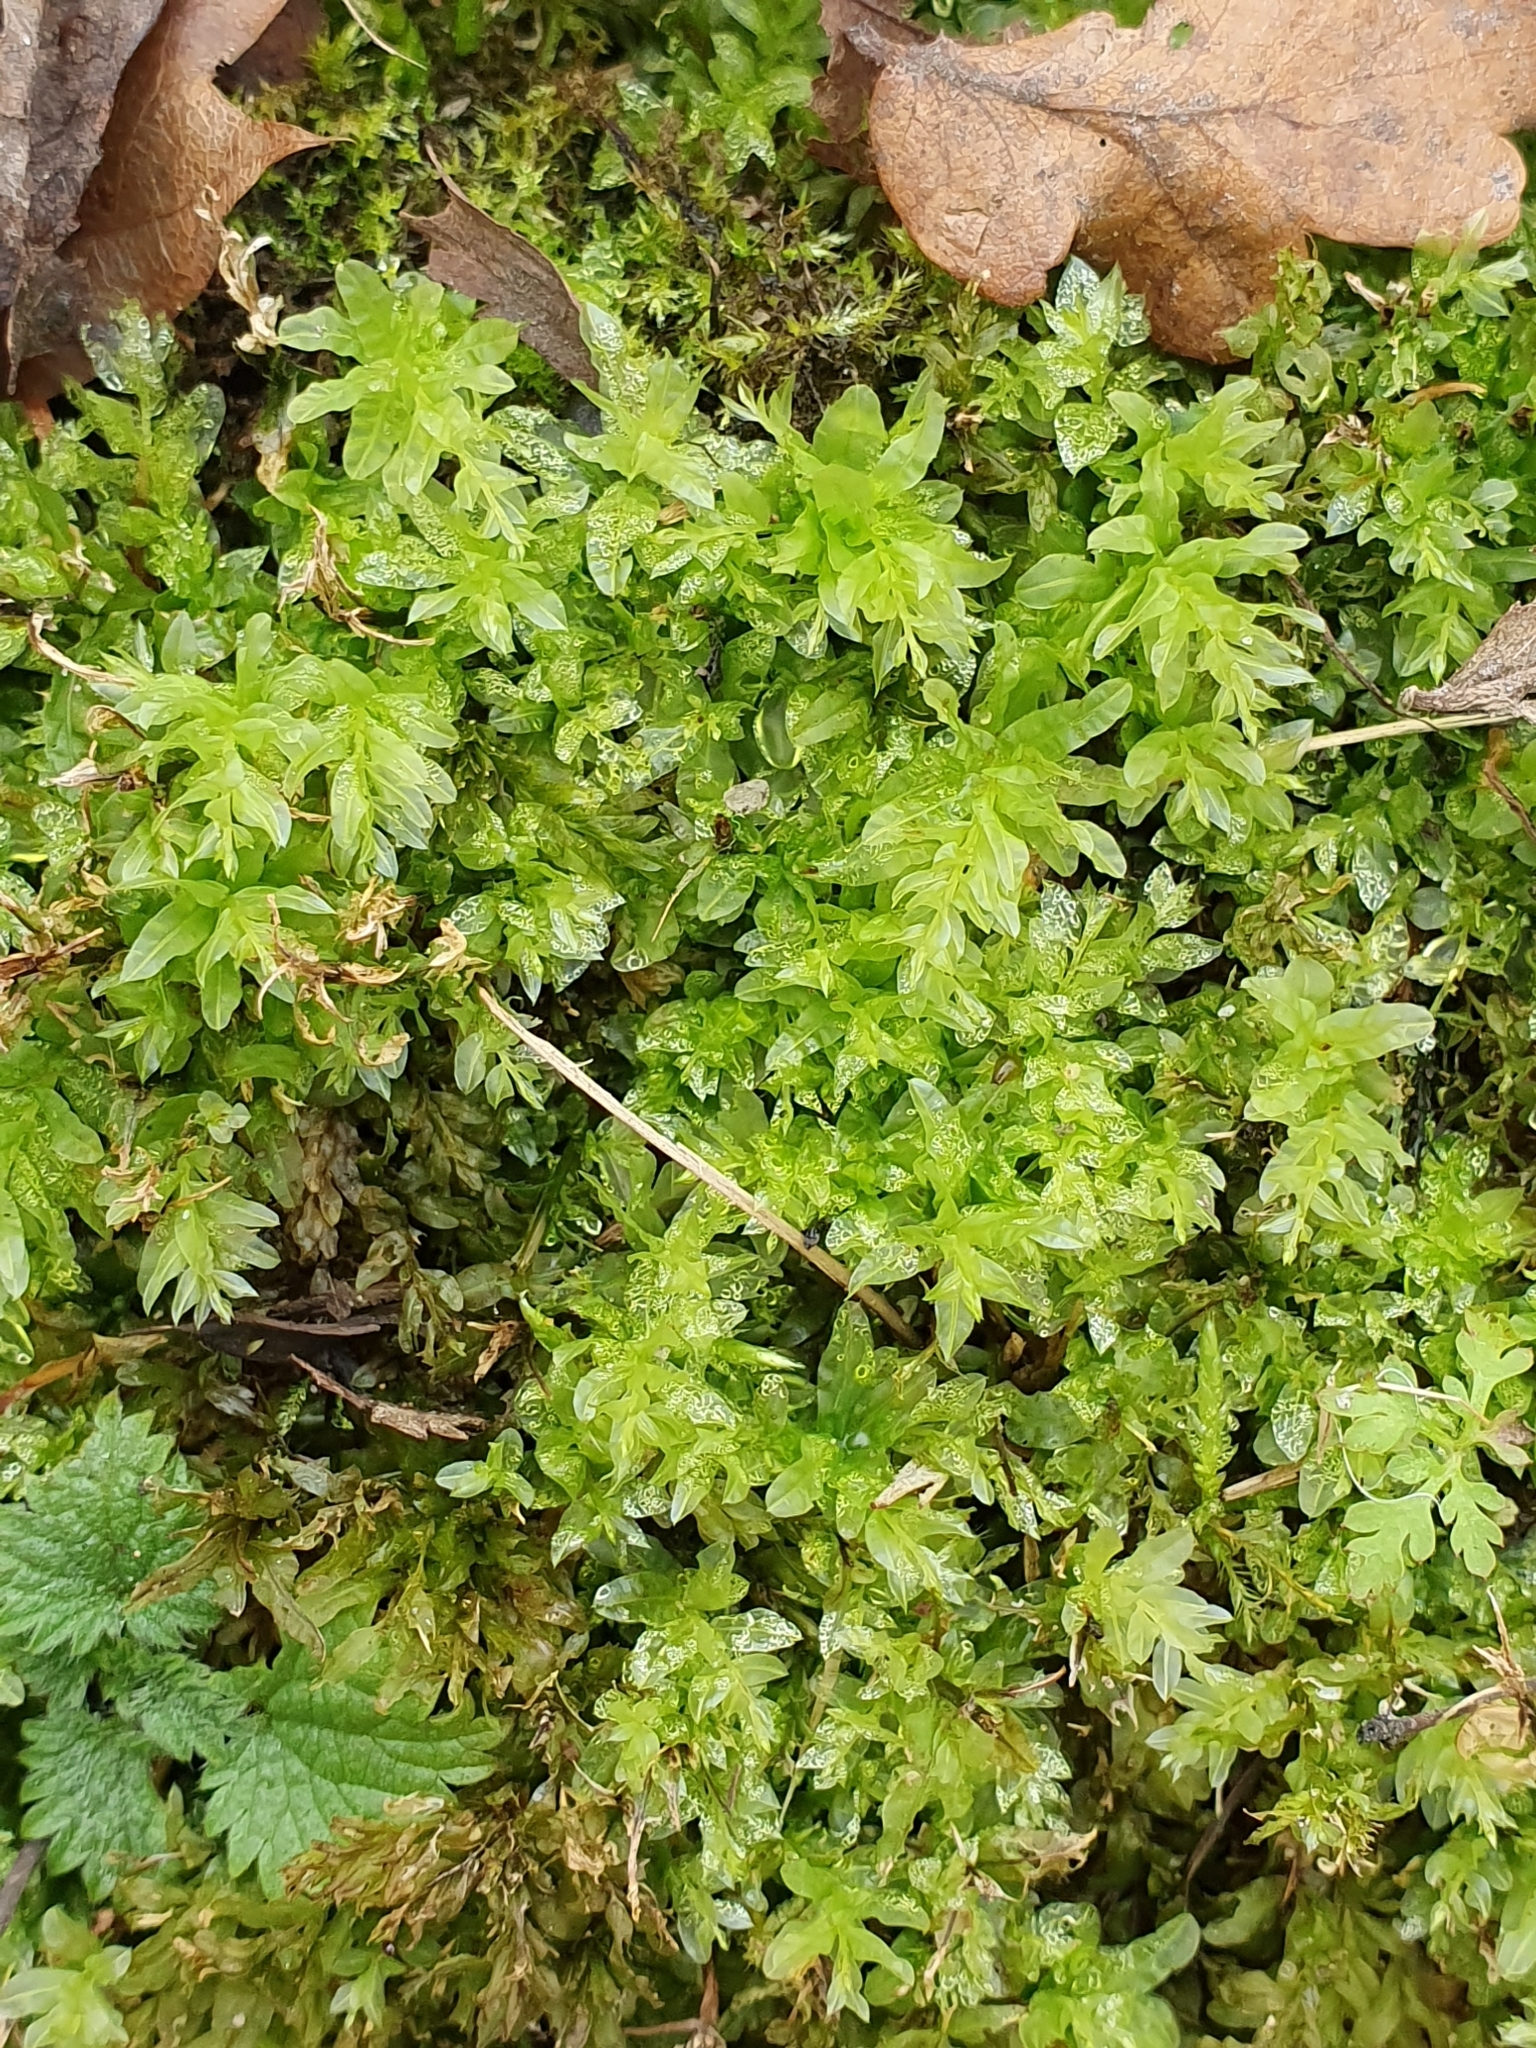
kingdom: Plantae
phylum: Bryophyta
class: Bryopsida
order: Bryales
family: Mniaceae
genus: Plagiomnium
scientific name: Plagiomnium undulatum
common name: Hart's-tongue thyme-moss
